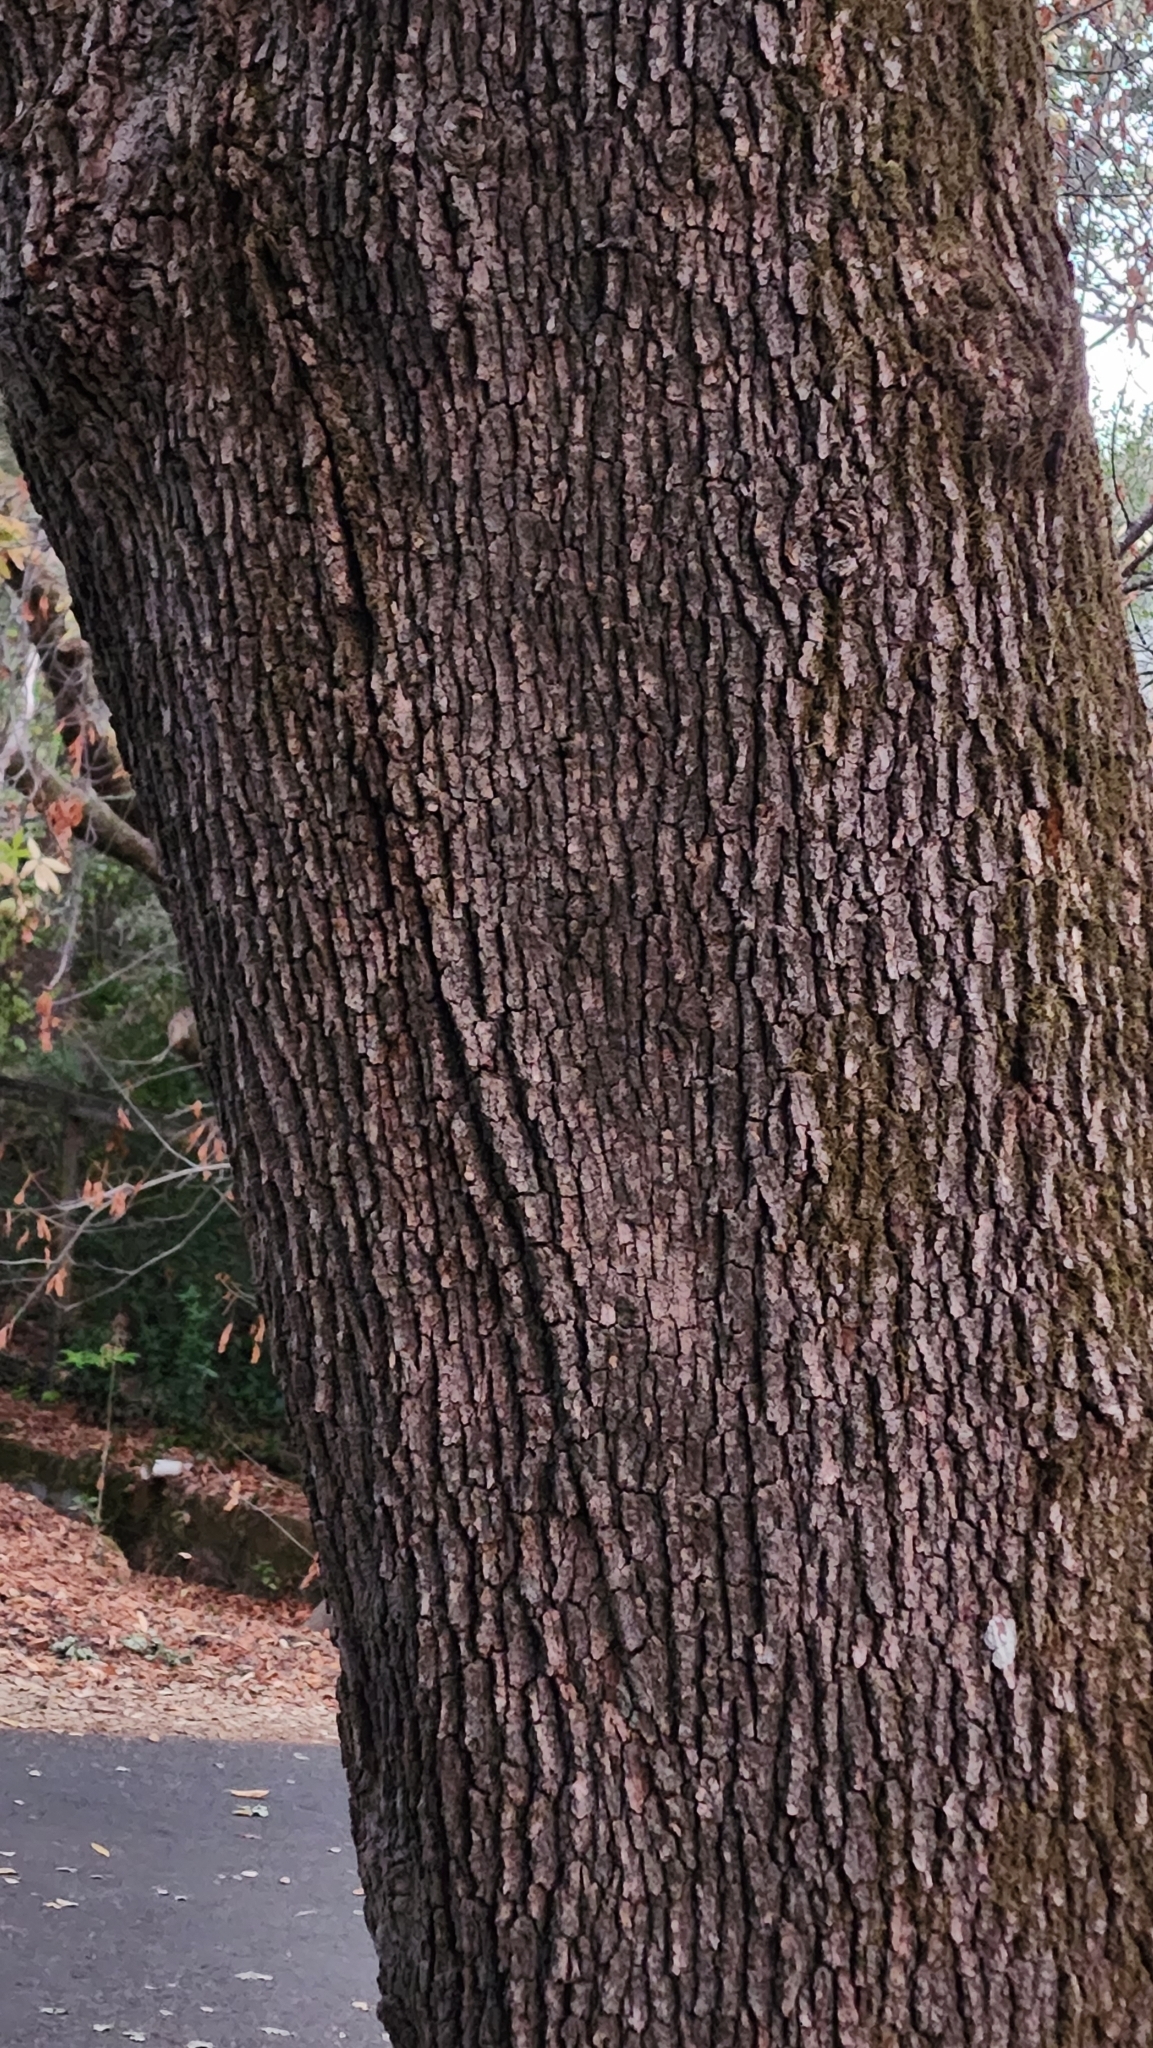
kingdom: Plantae
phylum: Tracheophyta
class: Magnoliopsida
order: Fagales
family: Fagaceae
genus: Quercus
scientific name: Quercus lobata
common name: Valley oak
